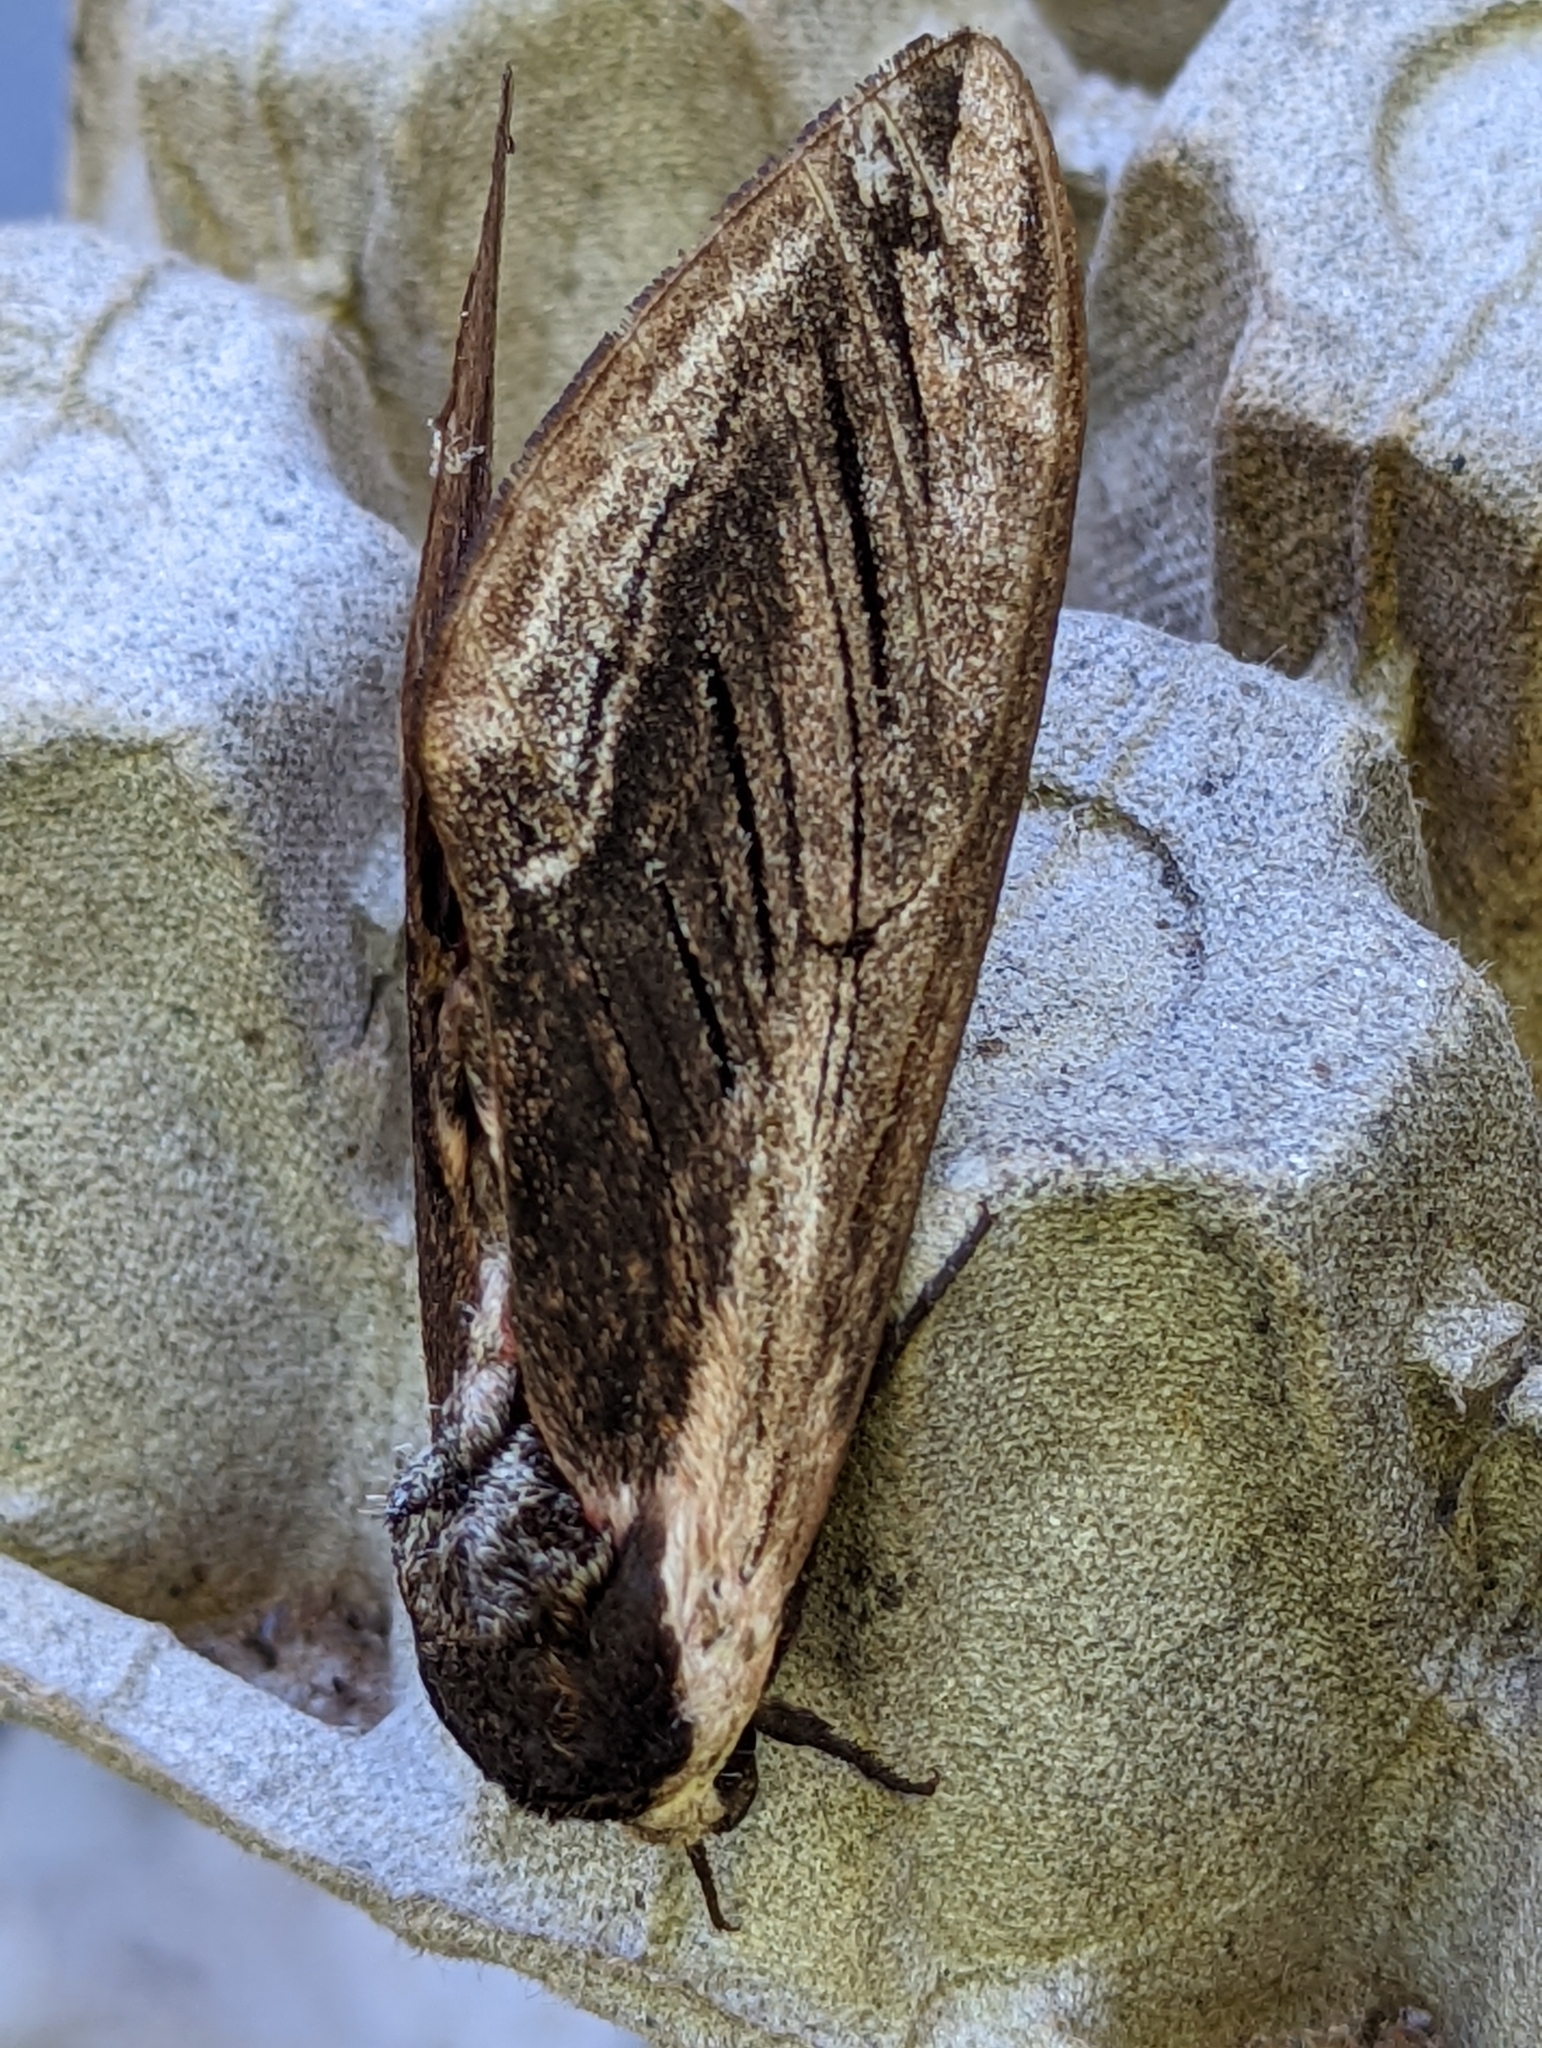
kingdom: Animalia
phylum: Arthropoda
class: Insecta
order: Lepidoptera
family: Sphingidae
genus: Sphinx
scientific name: Sphinx ligustri
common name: Privet hawk-moth
